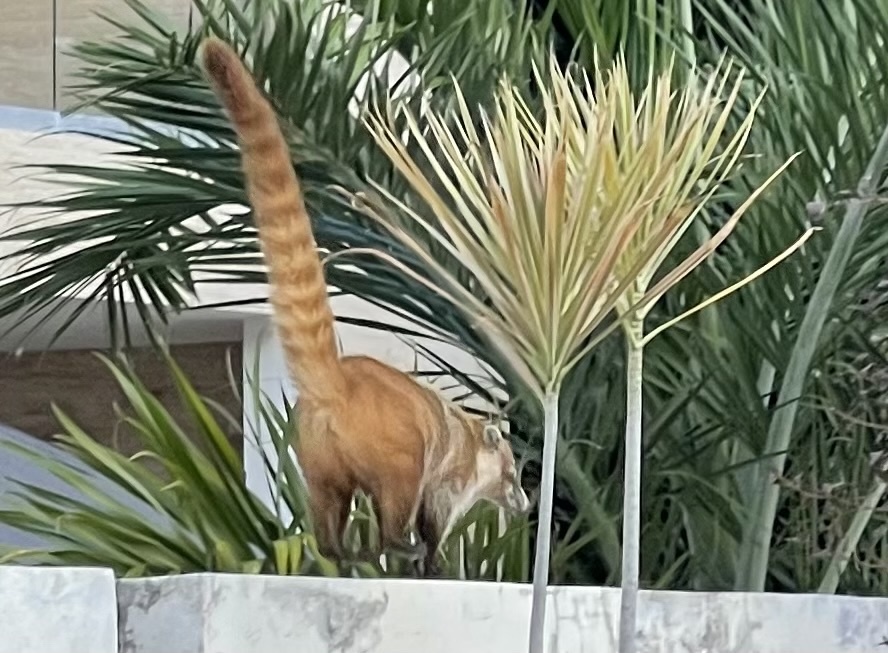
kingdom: Animalia
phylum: Chordata
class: Mammalia
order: Carnivora
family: Procyonidae
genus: Nasua
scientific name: Nasua narica
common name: White-nosed coati
